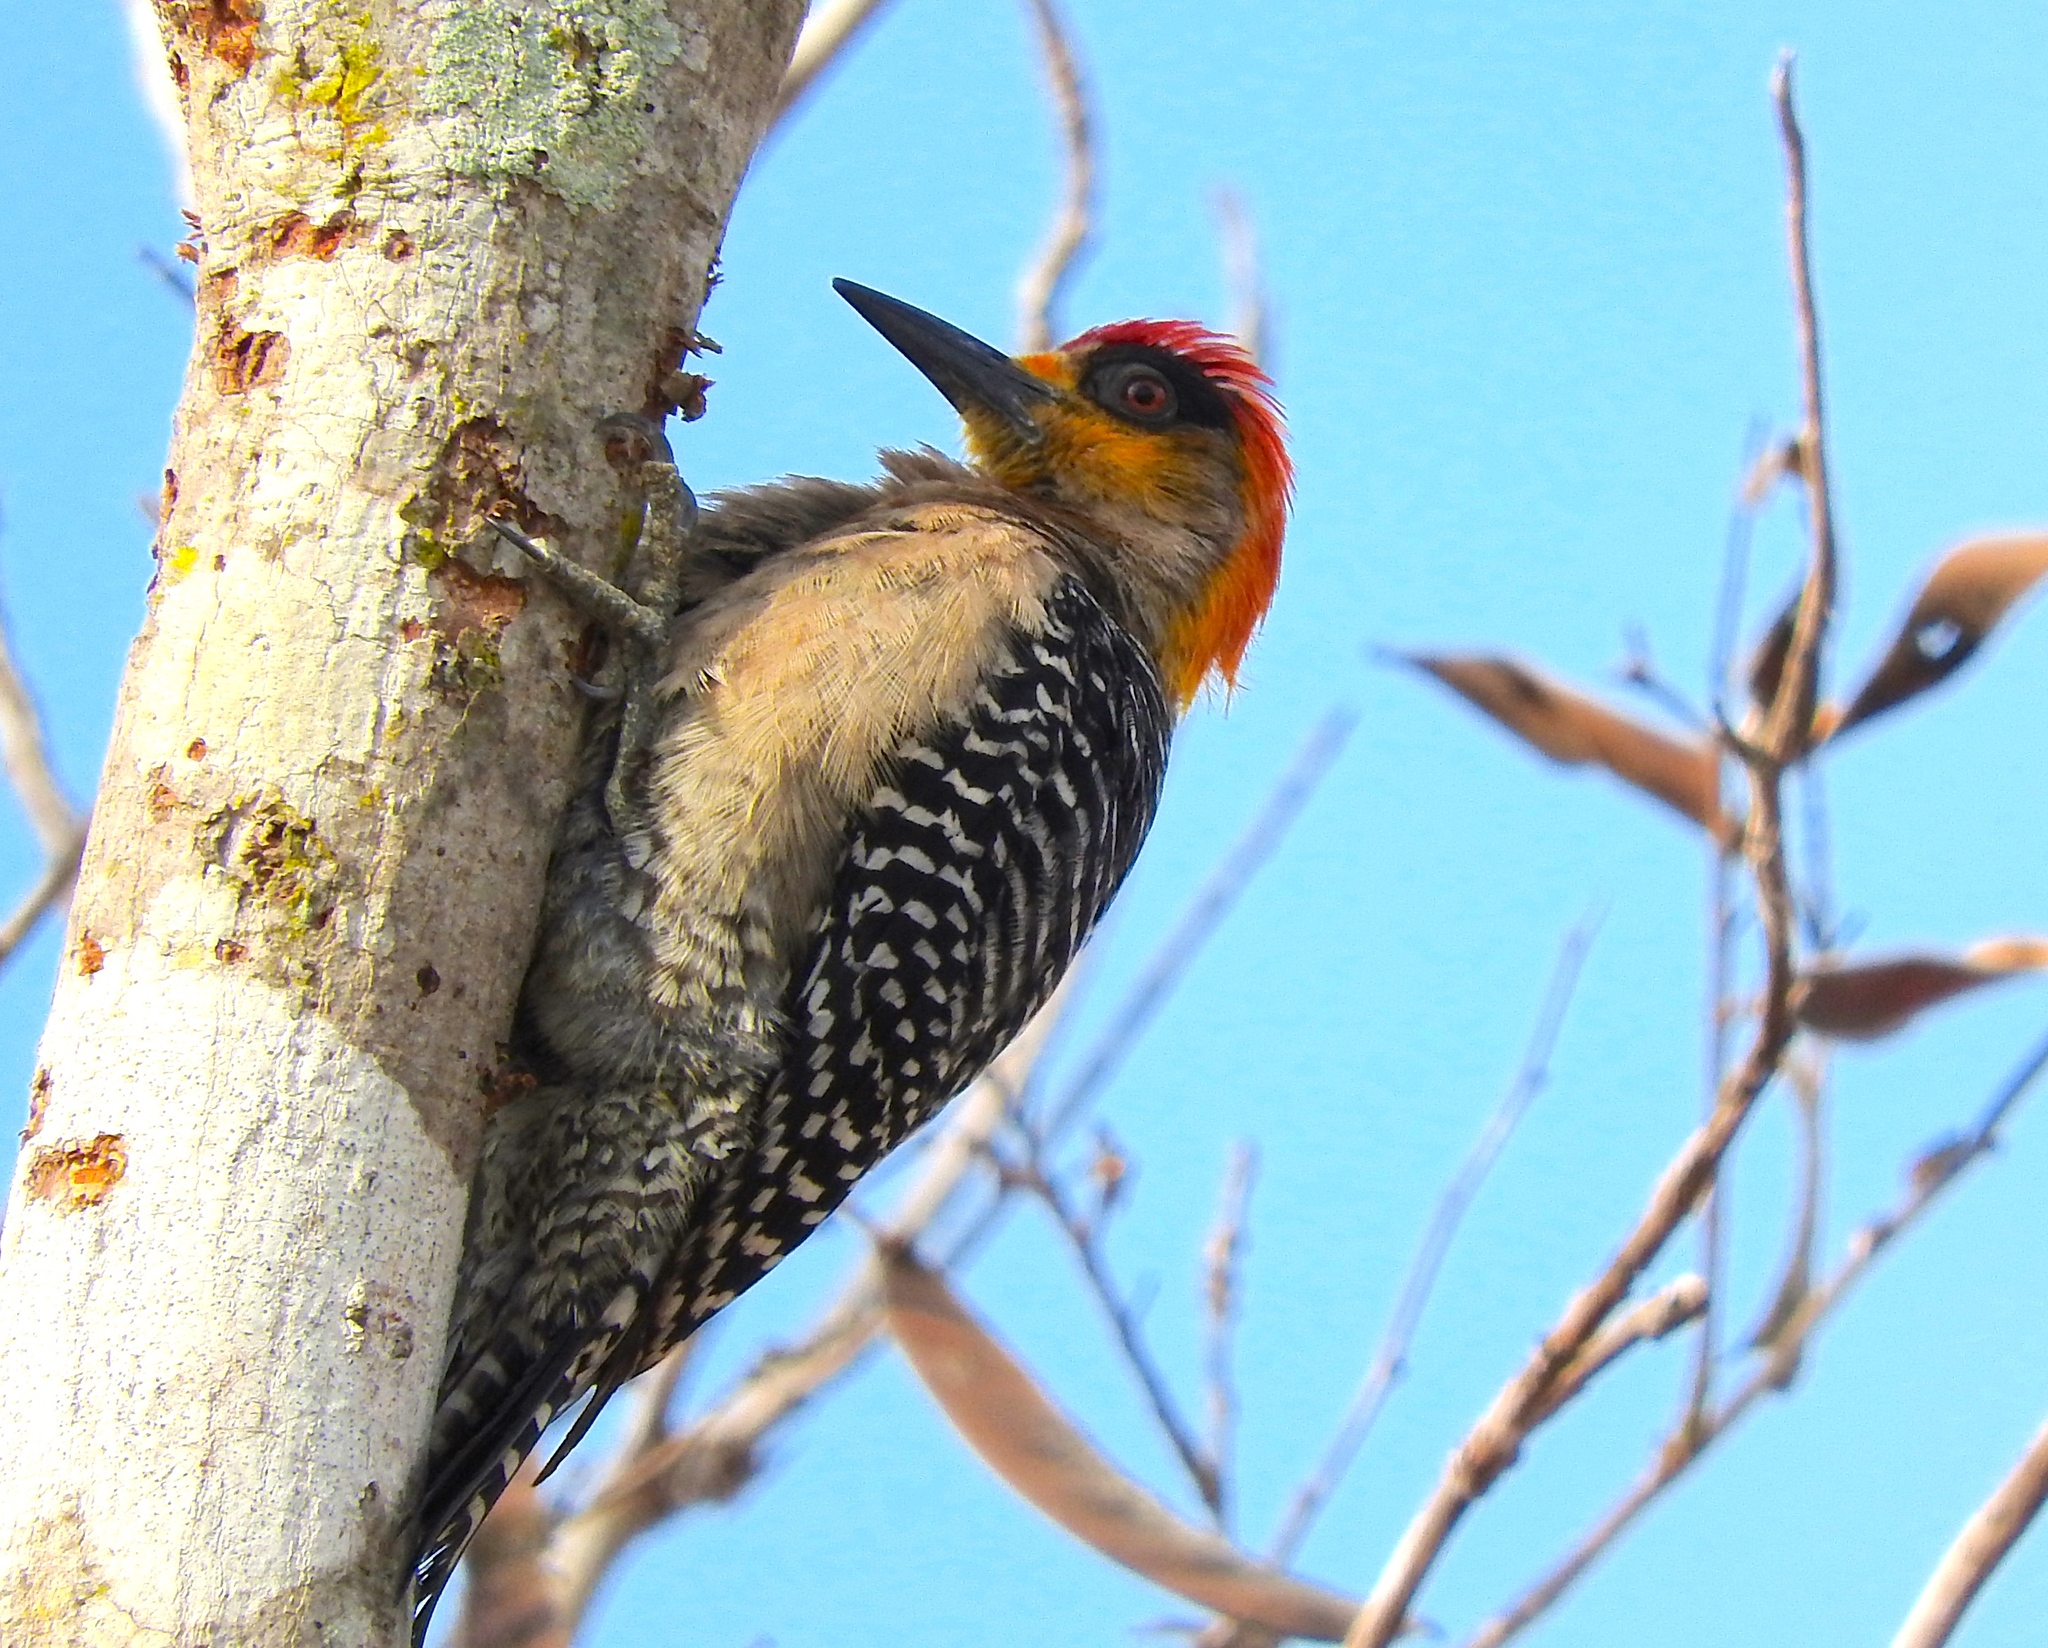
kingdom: Animalia
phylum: Chordata
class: Aves
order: Piciformes
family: Picidae
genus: Melanerpes
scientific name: Melanerpes chrysogenys
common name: Golden-cheeked woodpecker
